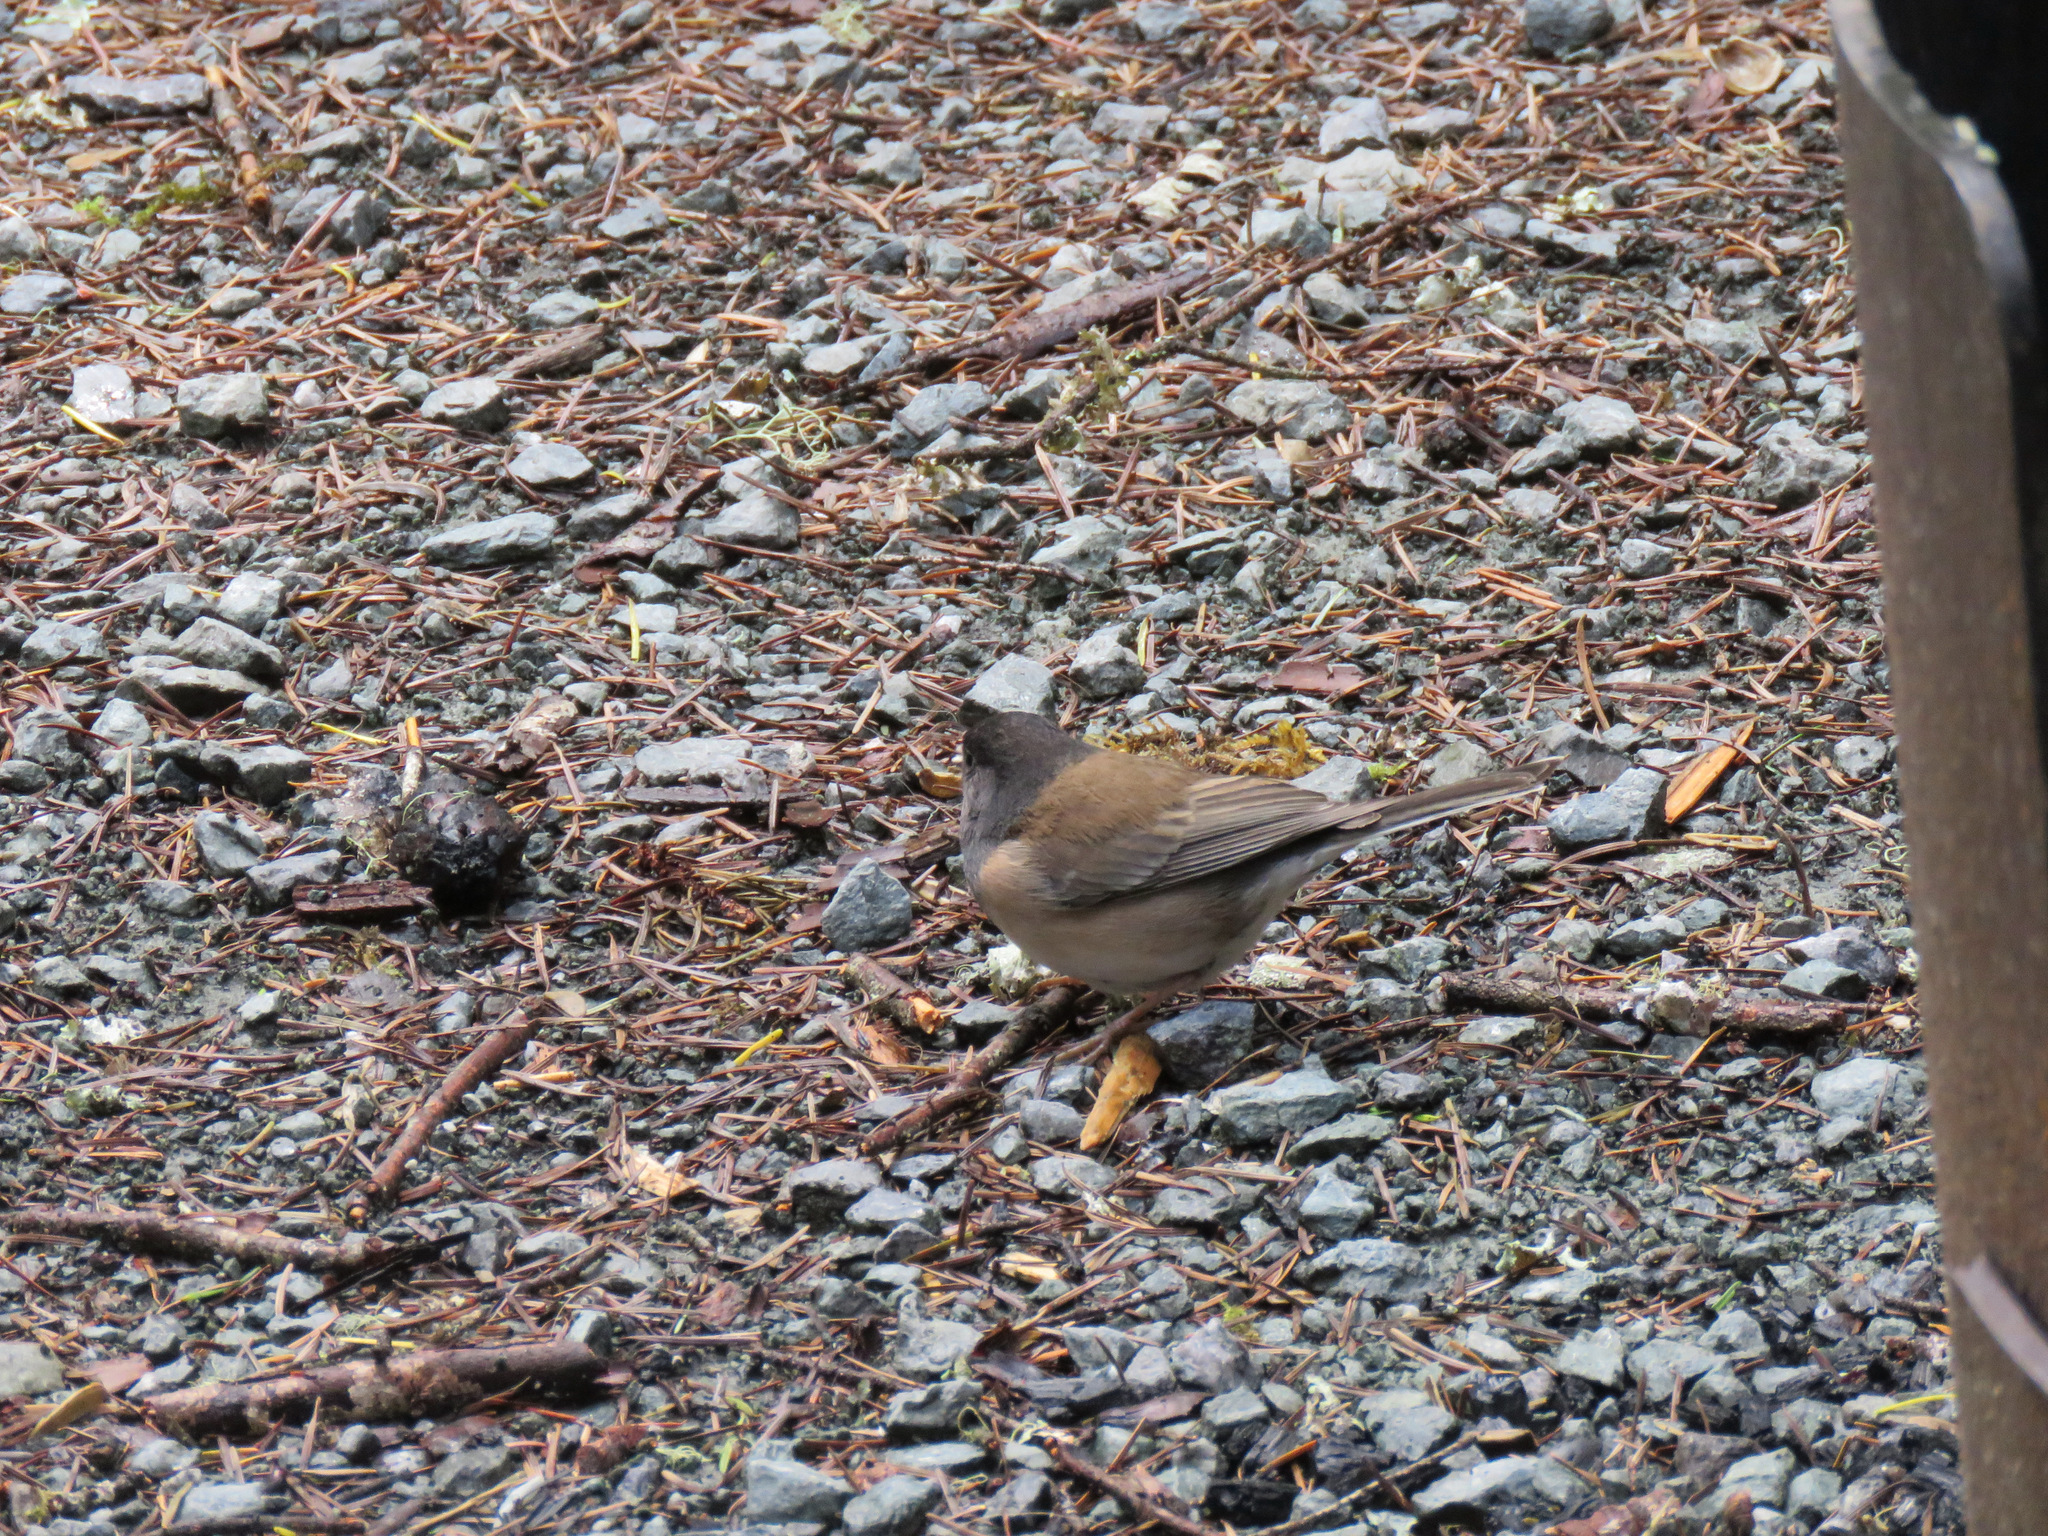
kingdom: Animalia
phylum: Chordata
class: Aves
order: Passeriformes
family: Passerellidae
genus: Junco
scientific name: Junco hyemalis
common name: Dark-eyed junco
